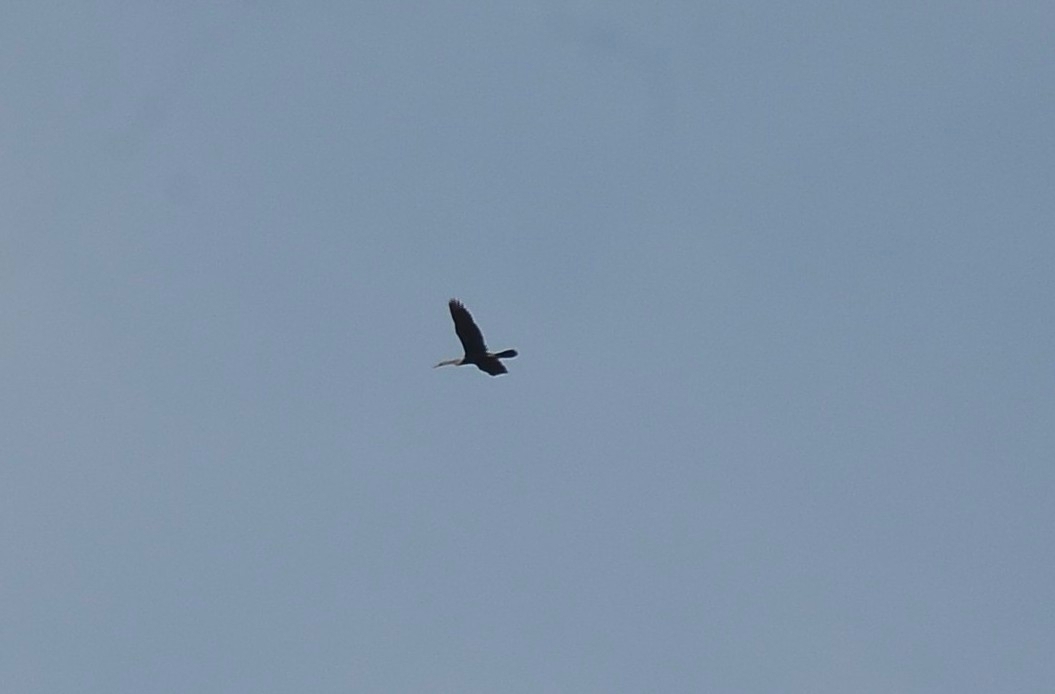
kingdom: Animalia
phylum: Chordata
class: Aves
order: Suliformes
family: Anhingidae
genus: Anhinga
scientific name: Anhinga melanogaster
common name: Oriental darter
